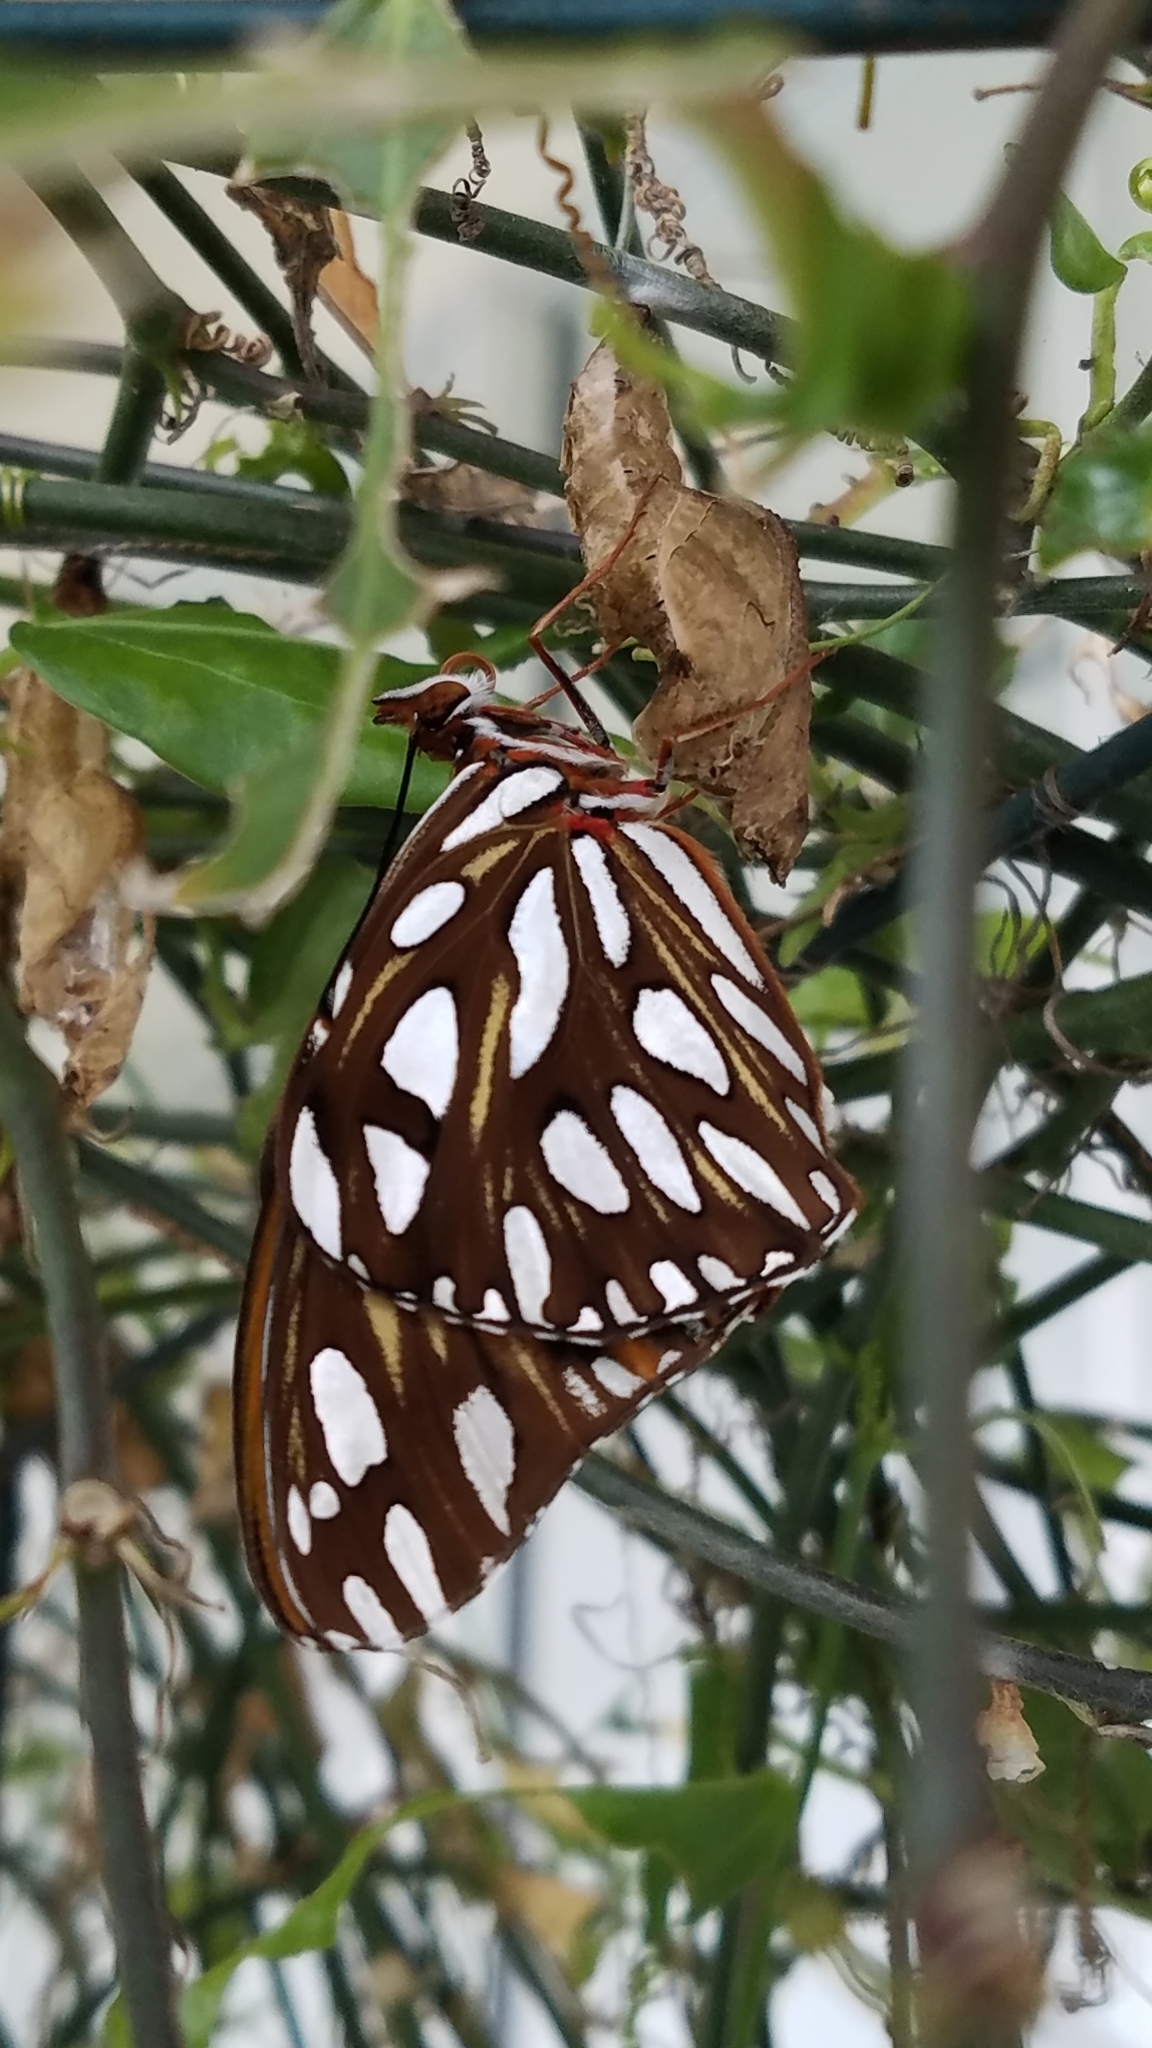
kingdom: Animalia
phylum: Arthropoda
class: Insecta
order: Lepidoptera
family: Nymphalidae
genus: Dione
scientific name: Dione vanillae
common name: Gulf fritillary
